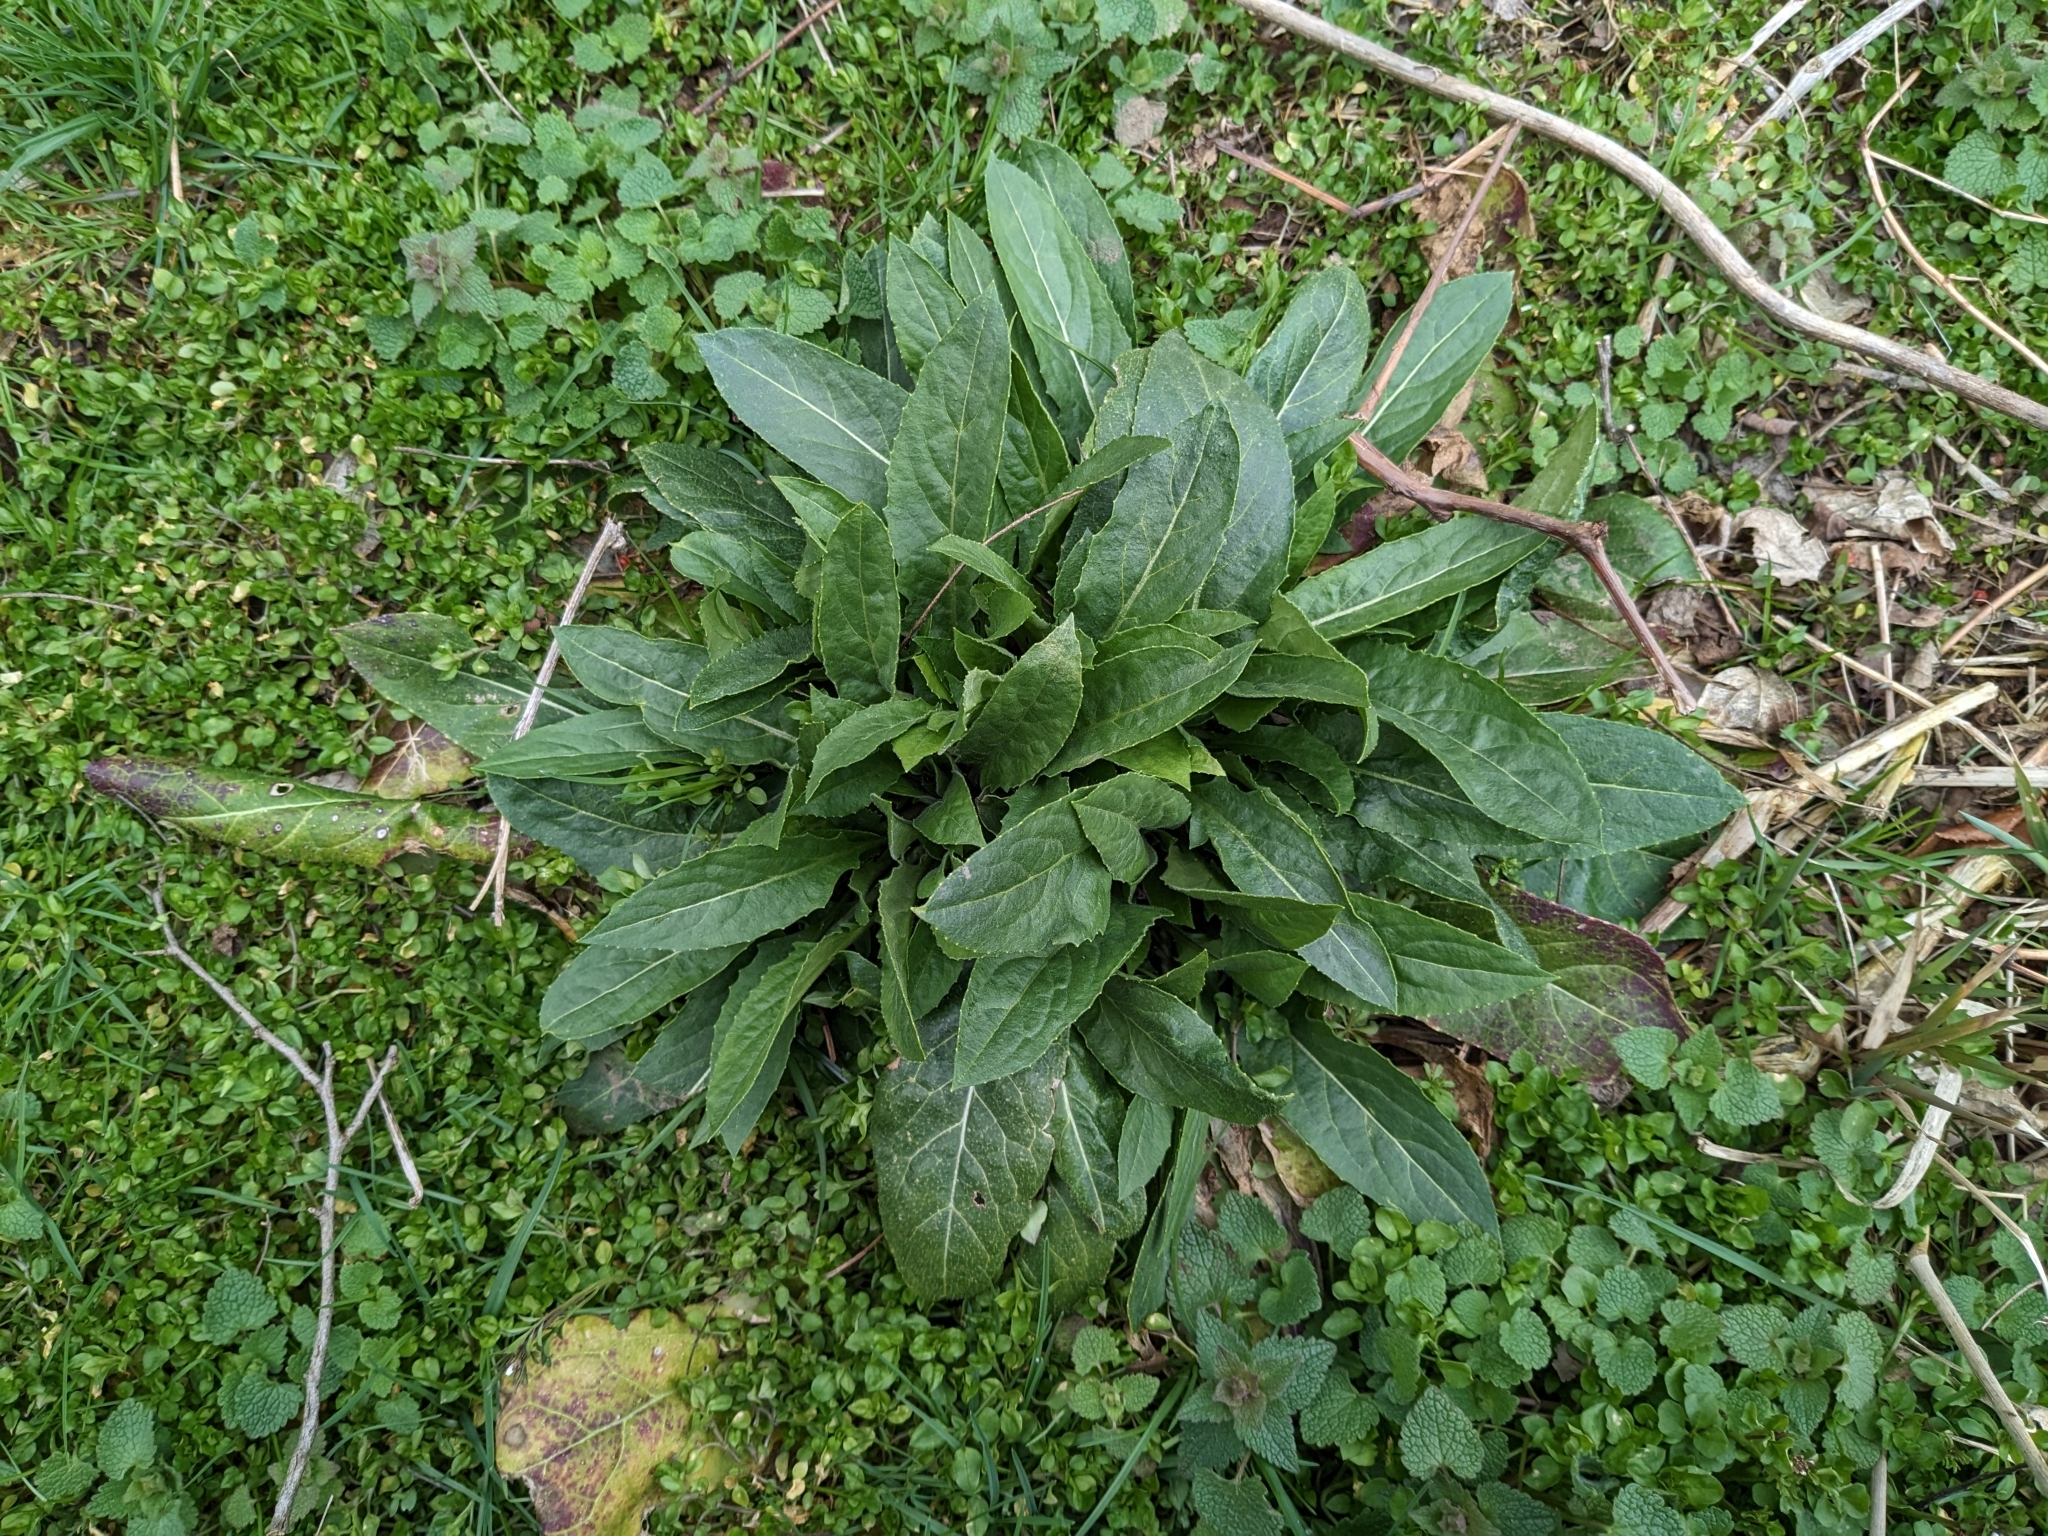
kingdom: Plantae
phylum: Tracheophyta
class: Magnoliopsida
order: Brassicales
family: Brassicaceae
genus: Hesperis
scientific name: Hesperis matronalis
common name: Dame's-violet
